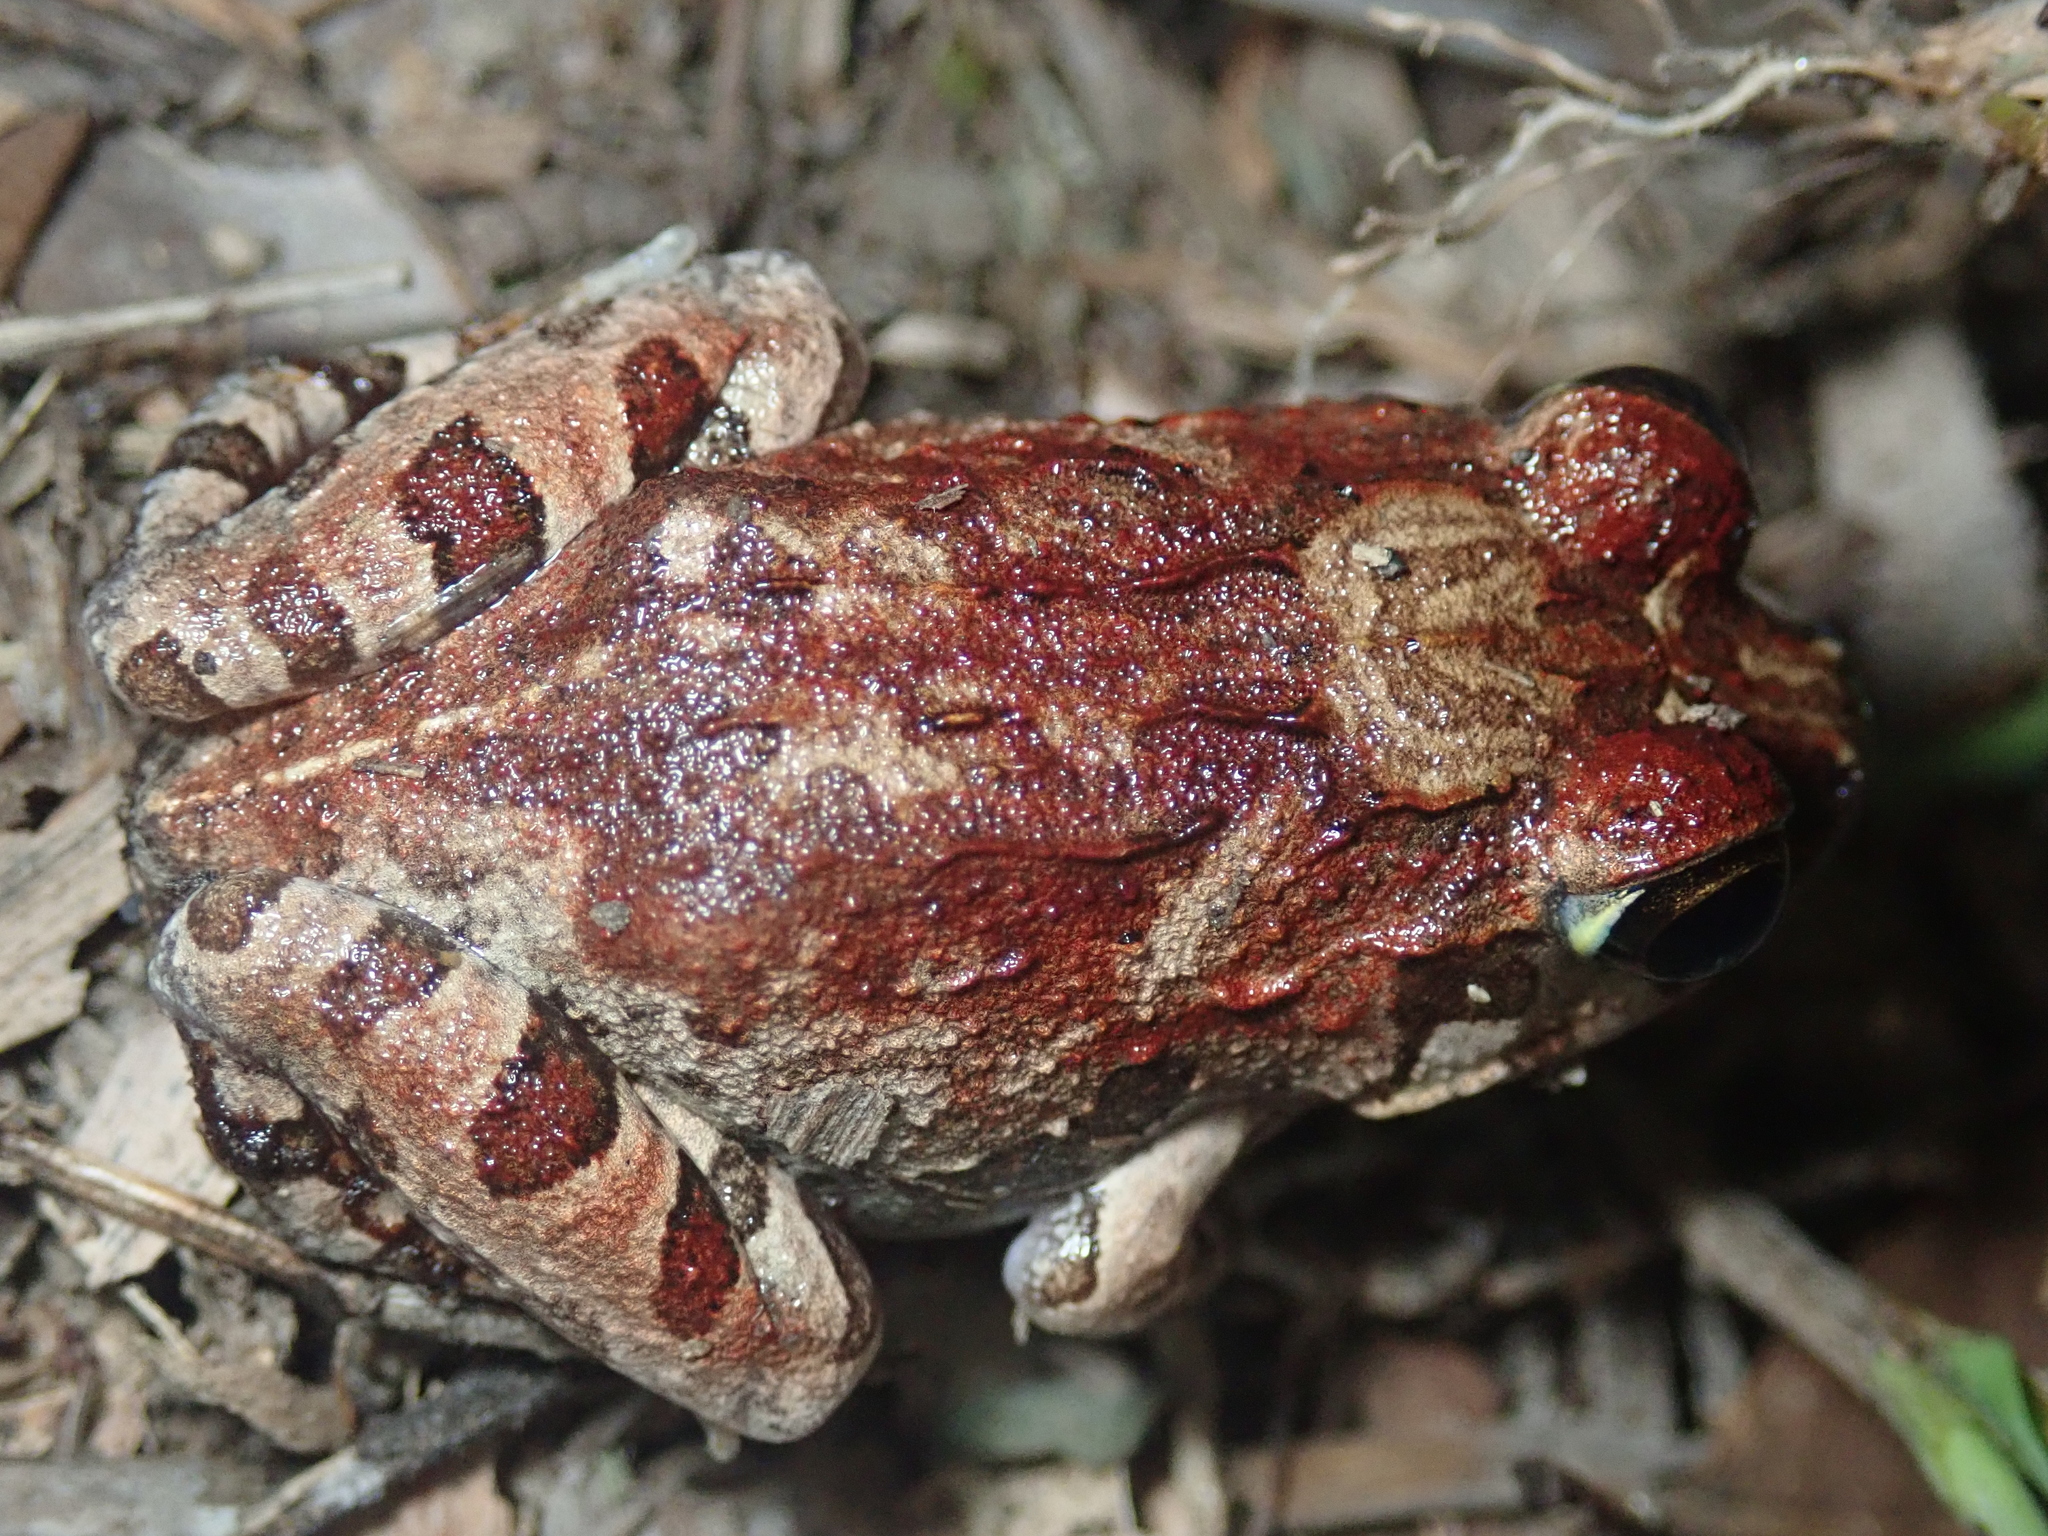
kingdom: Animalia
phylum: Chordata
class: Amphibia
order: Anura
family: Limnodynastidae
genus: Platyplectrum
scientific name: Platyplectrum ornatum
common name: Ornate burrowing frog
